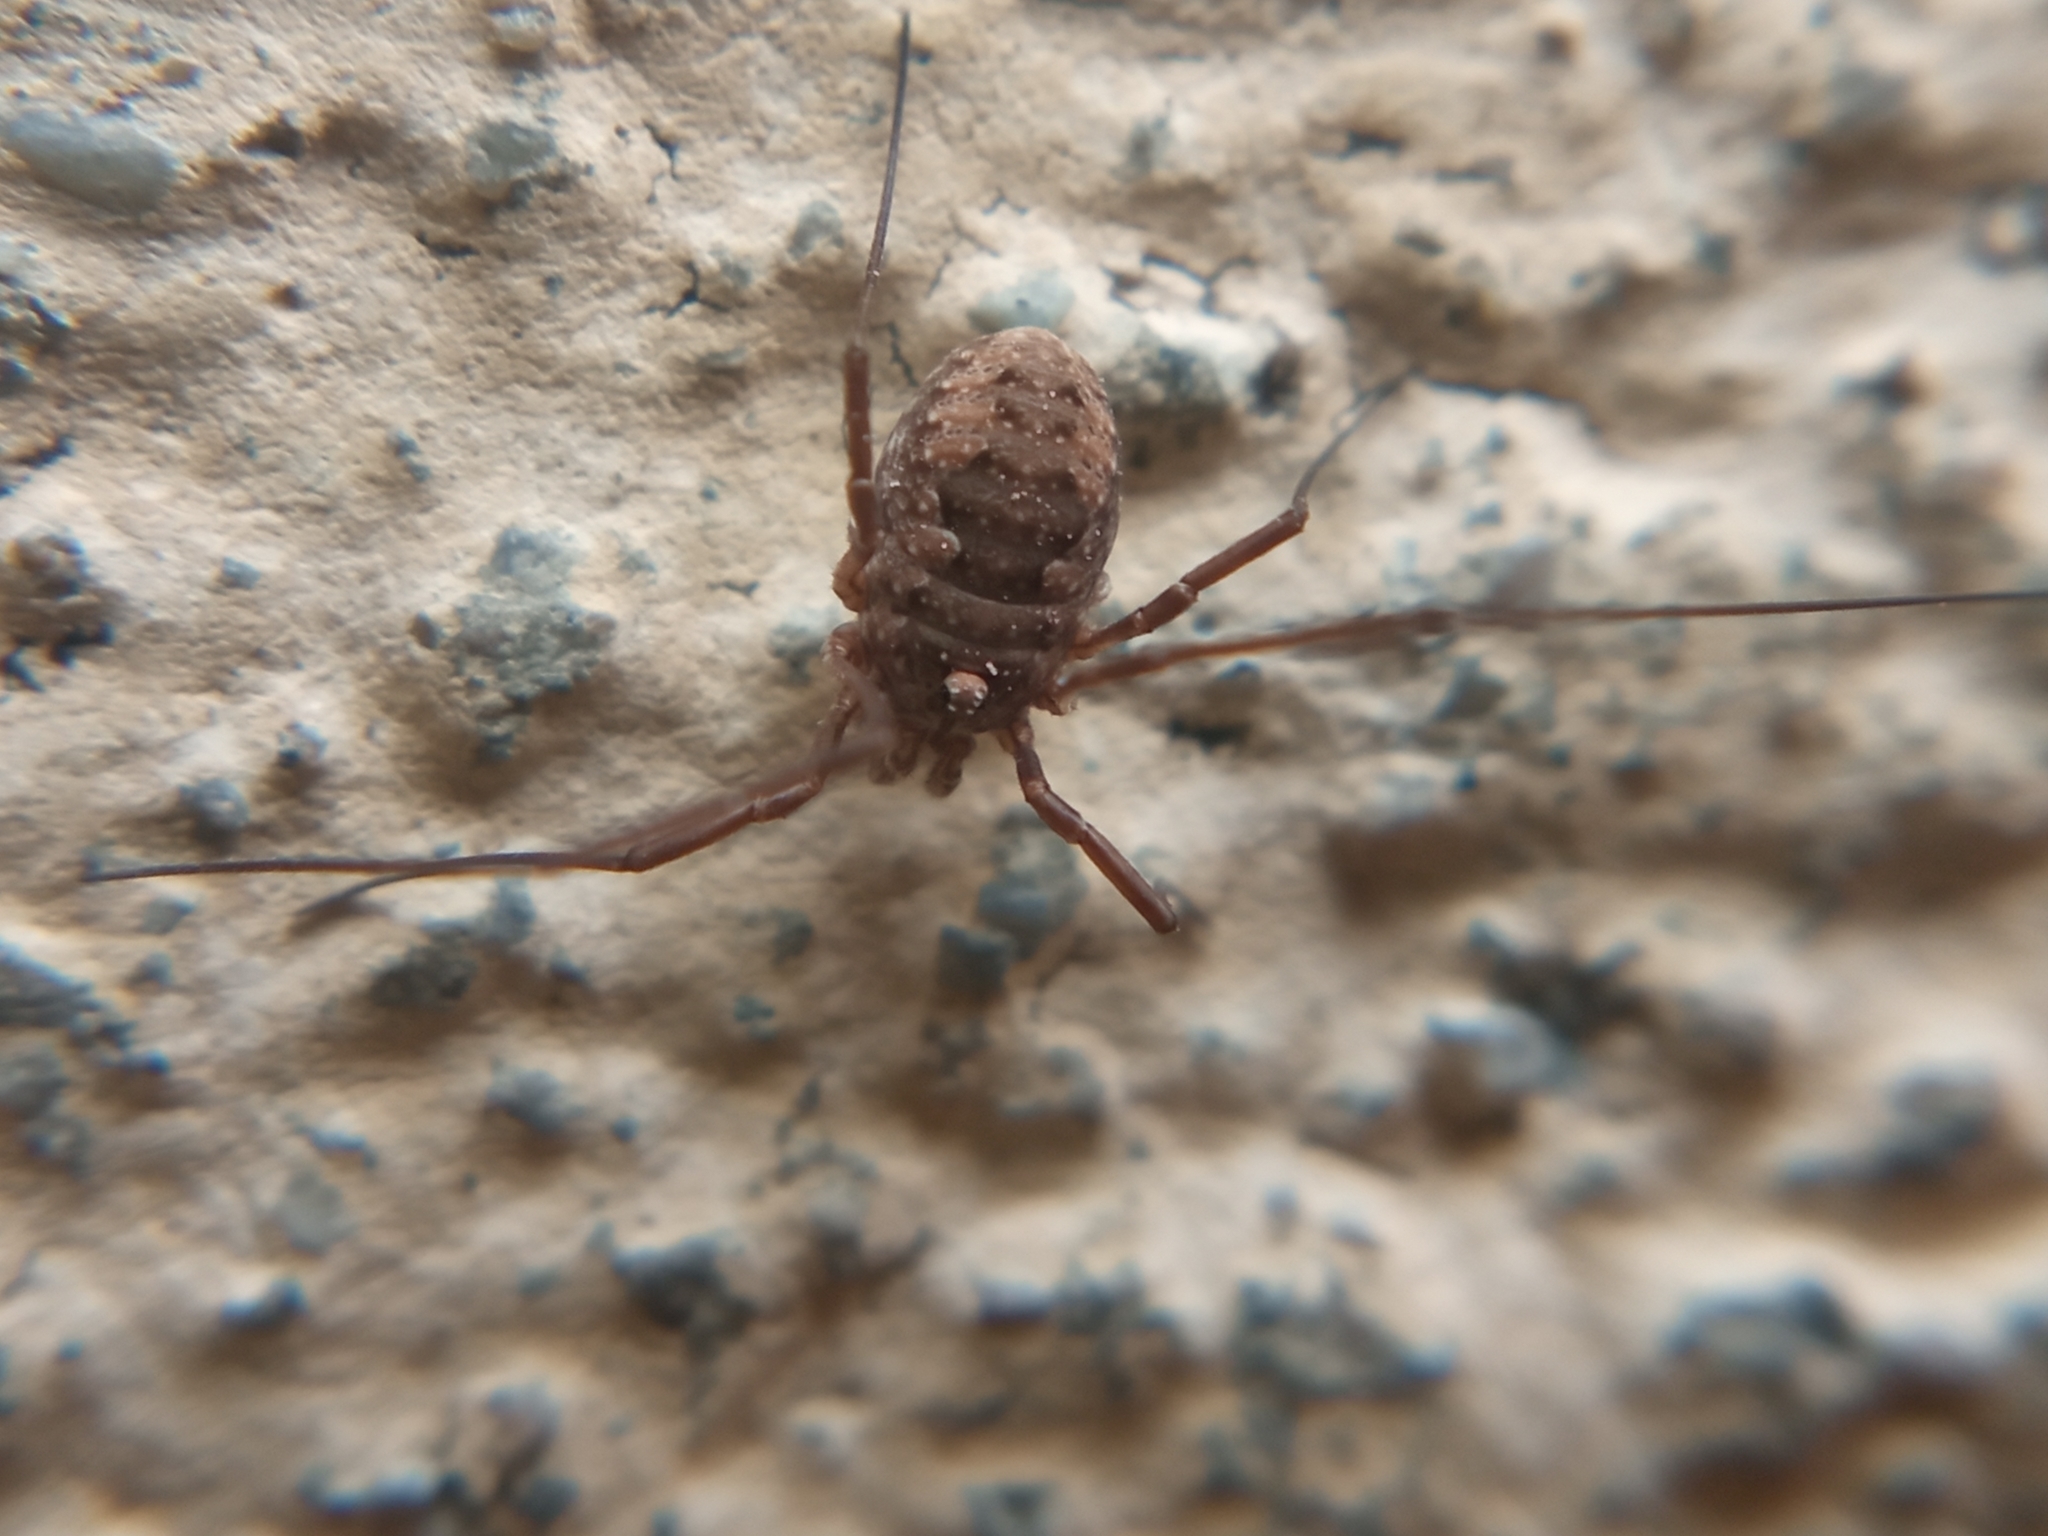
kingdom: Animalia
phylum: Arthropoda
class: Arachnida
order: Opiliones
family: Phalangiidae
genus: Phalangium
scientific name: Phalangium opilio
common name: Daddy longleg
